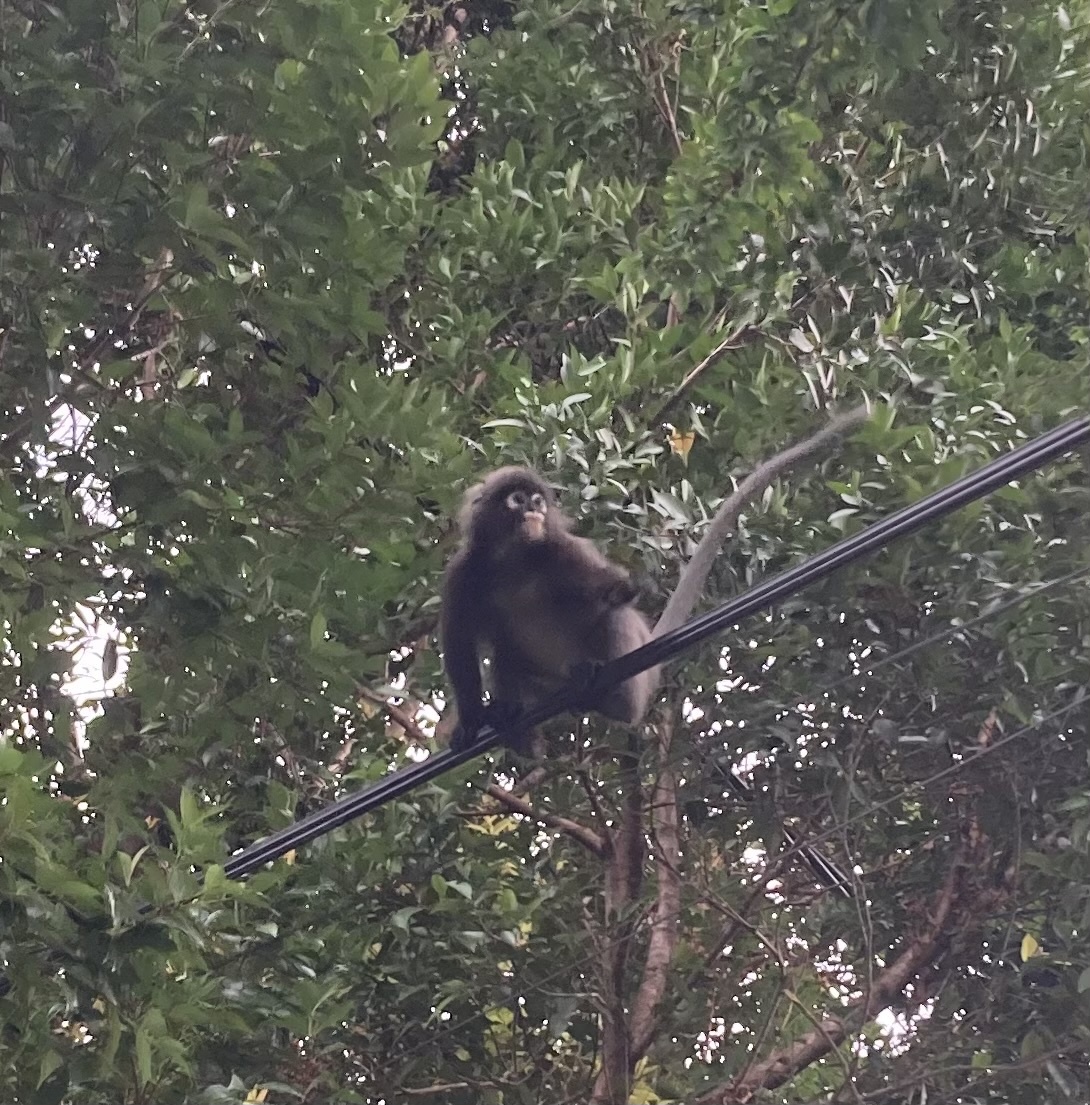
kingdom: Animalia
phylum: Chordata
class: Mammalia
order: Primates
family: Cercopithecidae
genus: Trachypithecus
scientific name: Trachypithecus obscurus
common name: Dusky leaf-monkey
